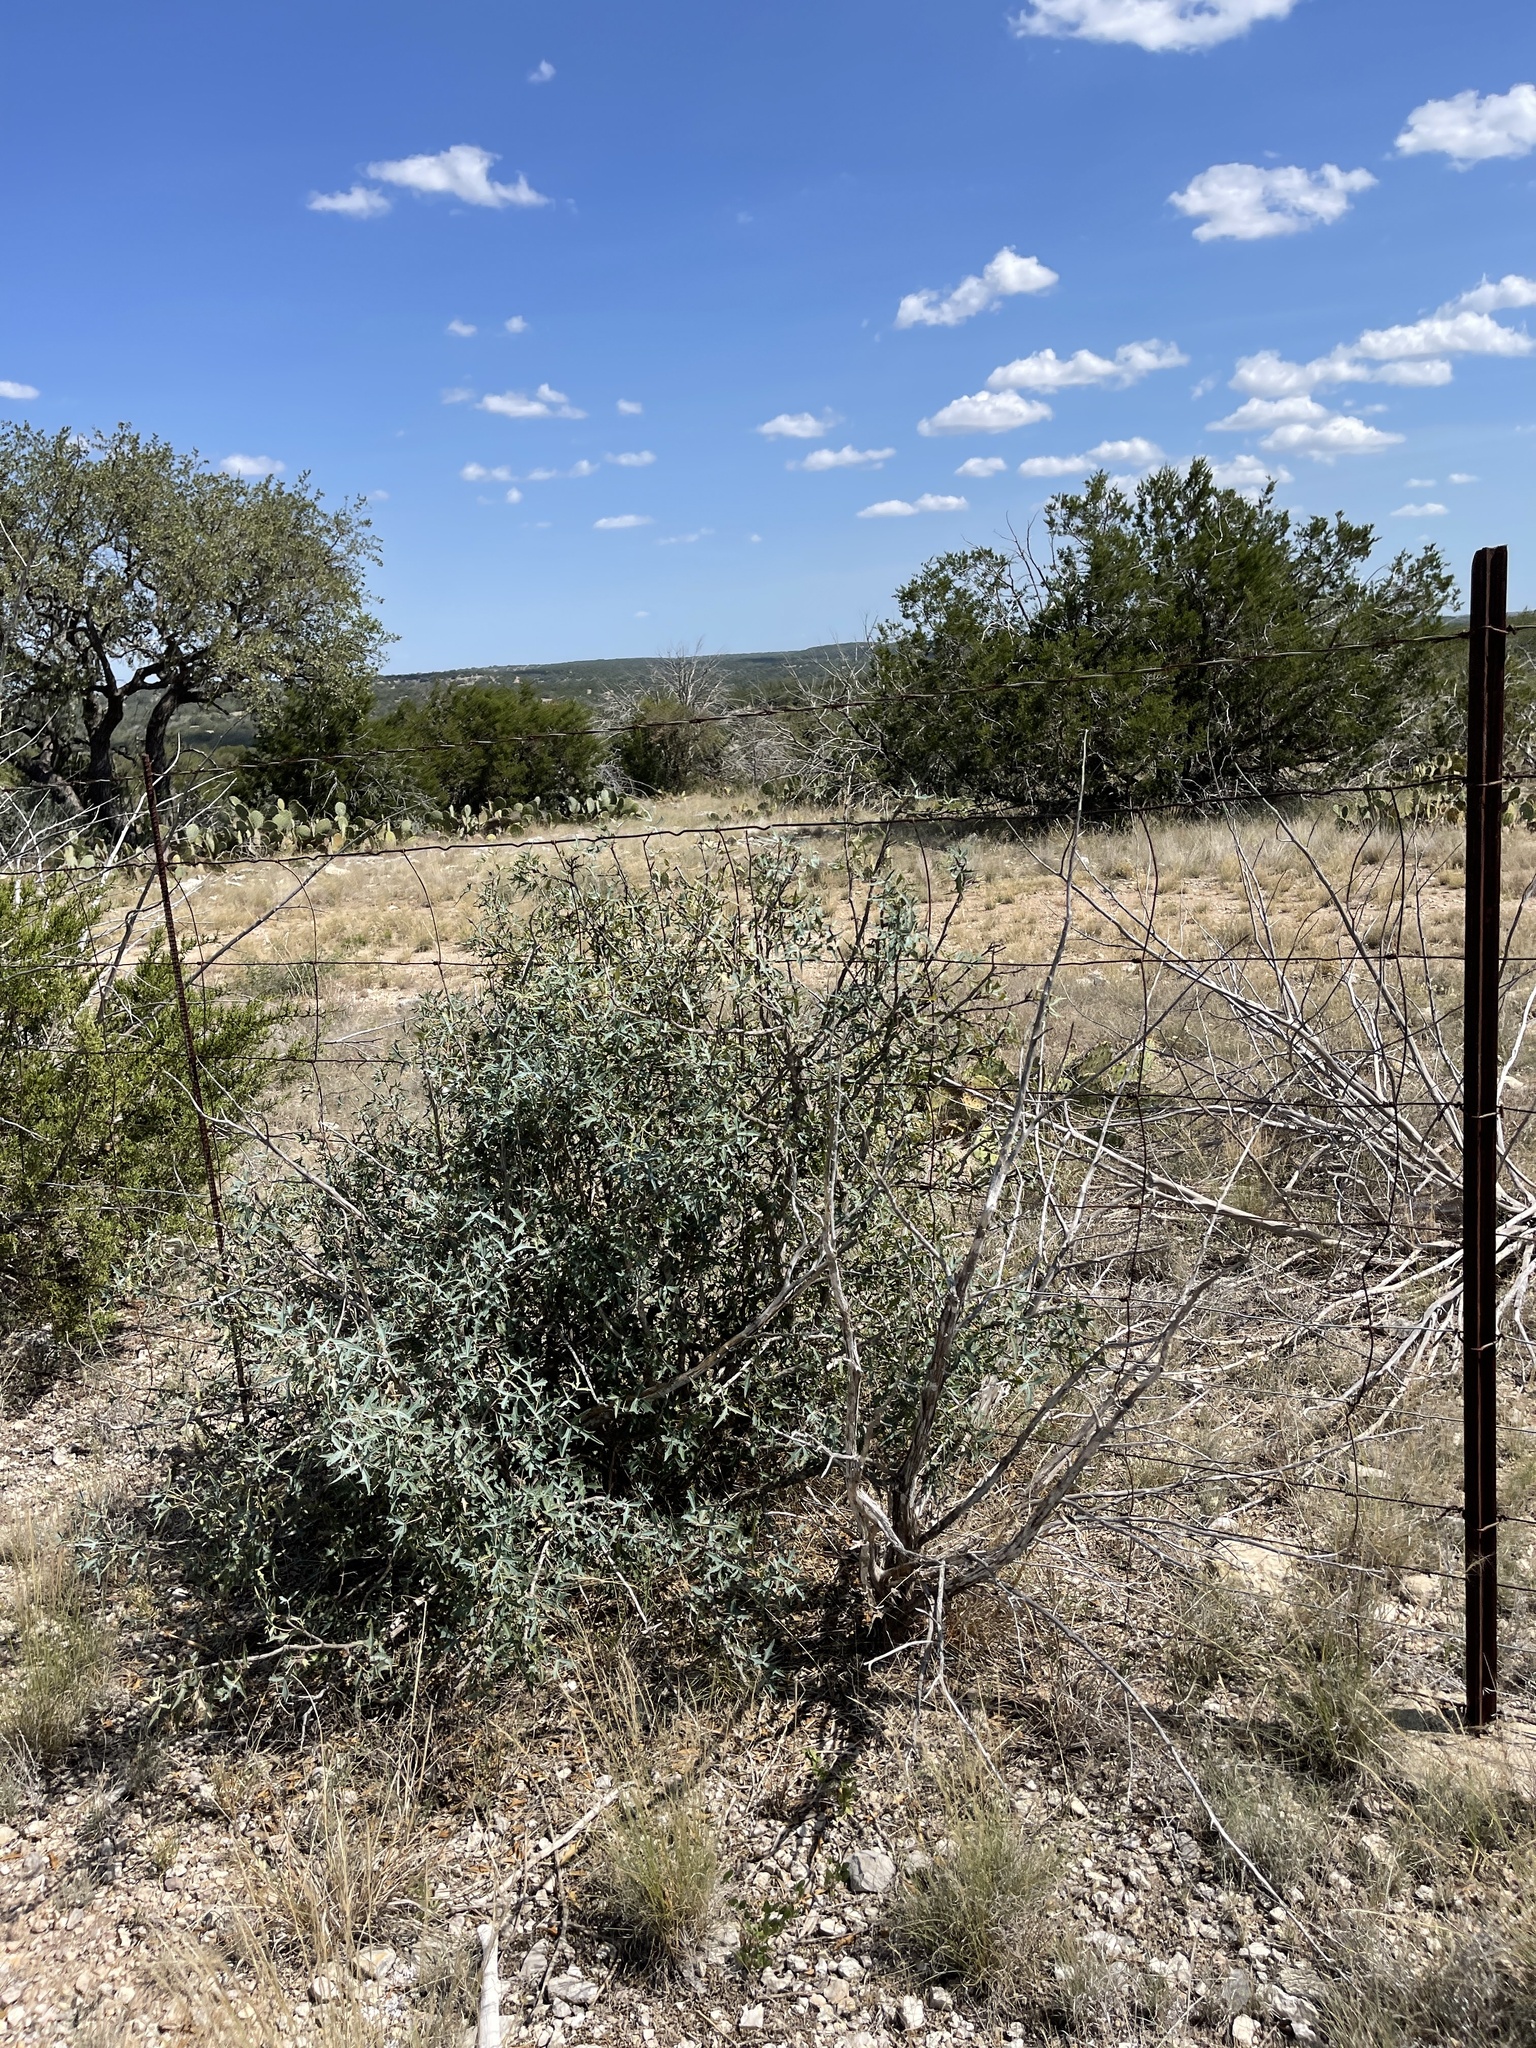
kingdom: Plantae
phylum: Tracheophyta
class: Magnoliopsida
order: Ranunculales
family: Berberidaceae
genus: Alloberberis
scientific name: Alloberberis trifoliolata
